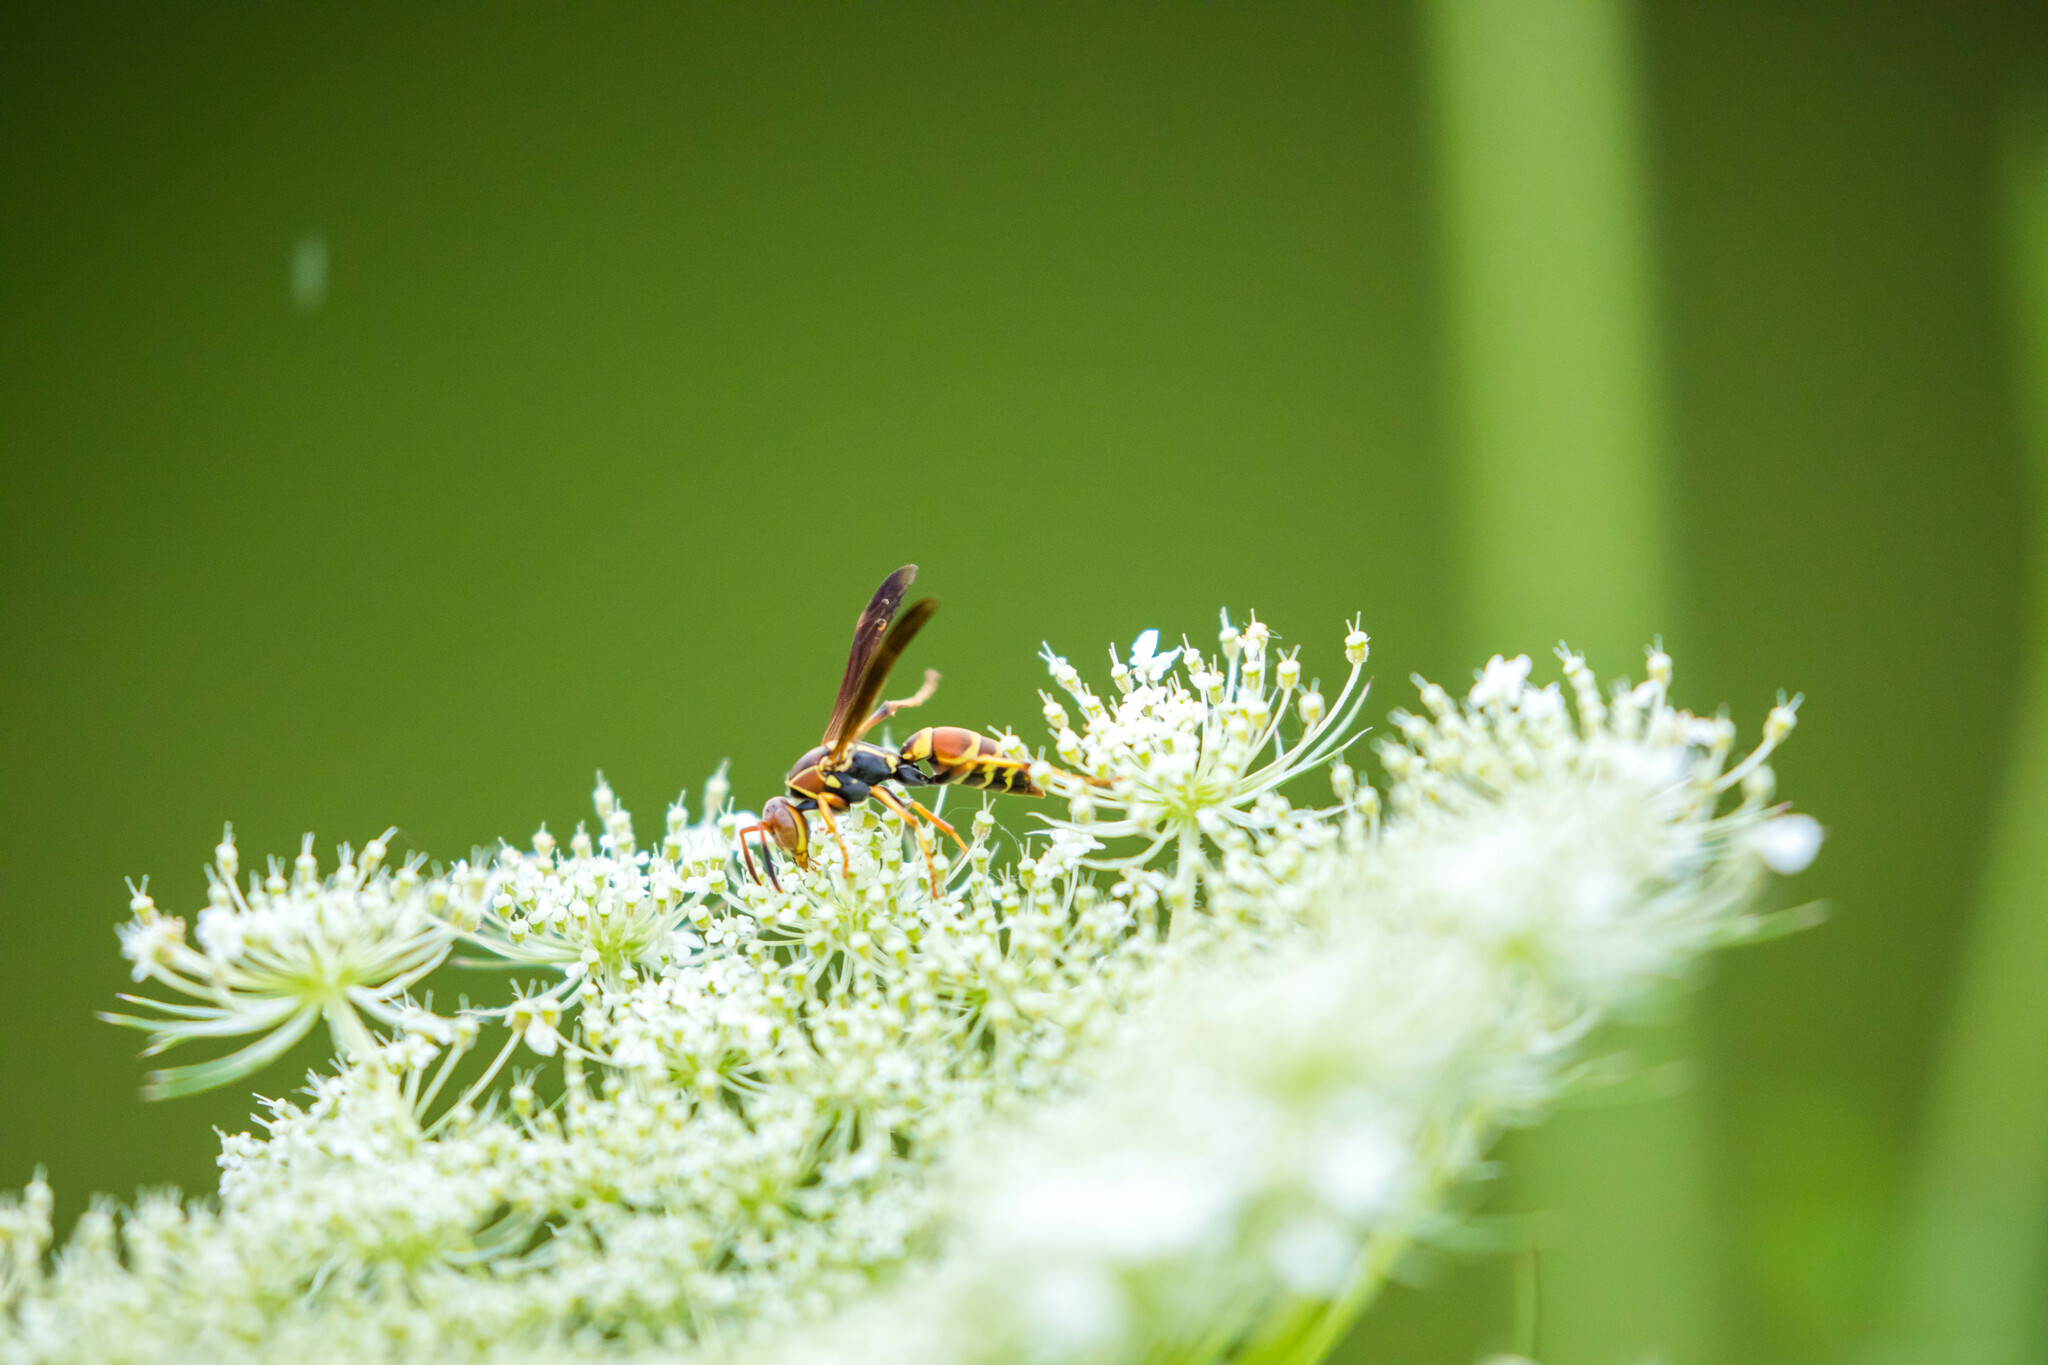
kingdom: Animalia
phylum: Arthropoda
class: Insecta
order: Hymenoptera
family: Eumenidae
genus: Polistes
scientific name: Polistes dorsalis
